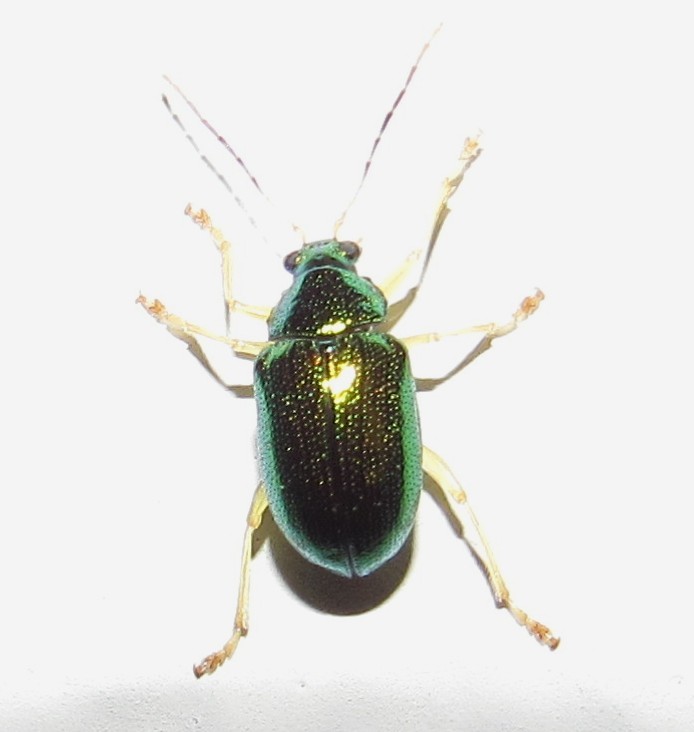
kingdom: Animalia
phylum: Arthropoda
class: Insecta
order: Coleoptera
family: Chrysomelidae
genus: Colaspis
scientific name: Colaspis
